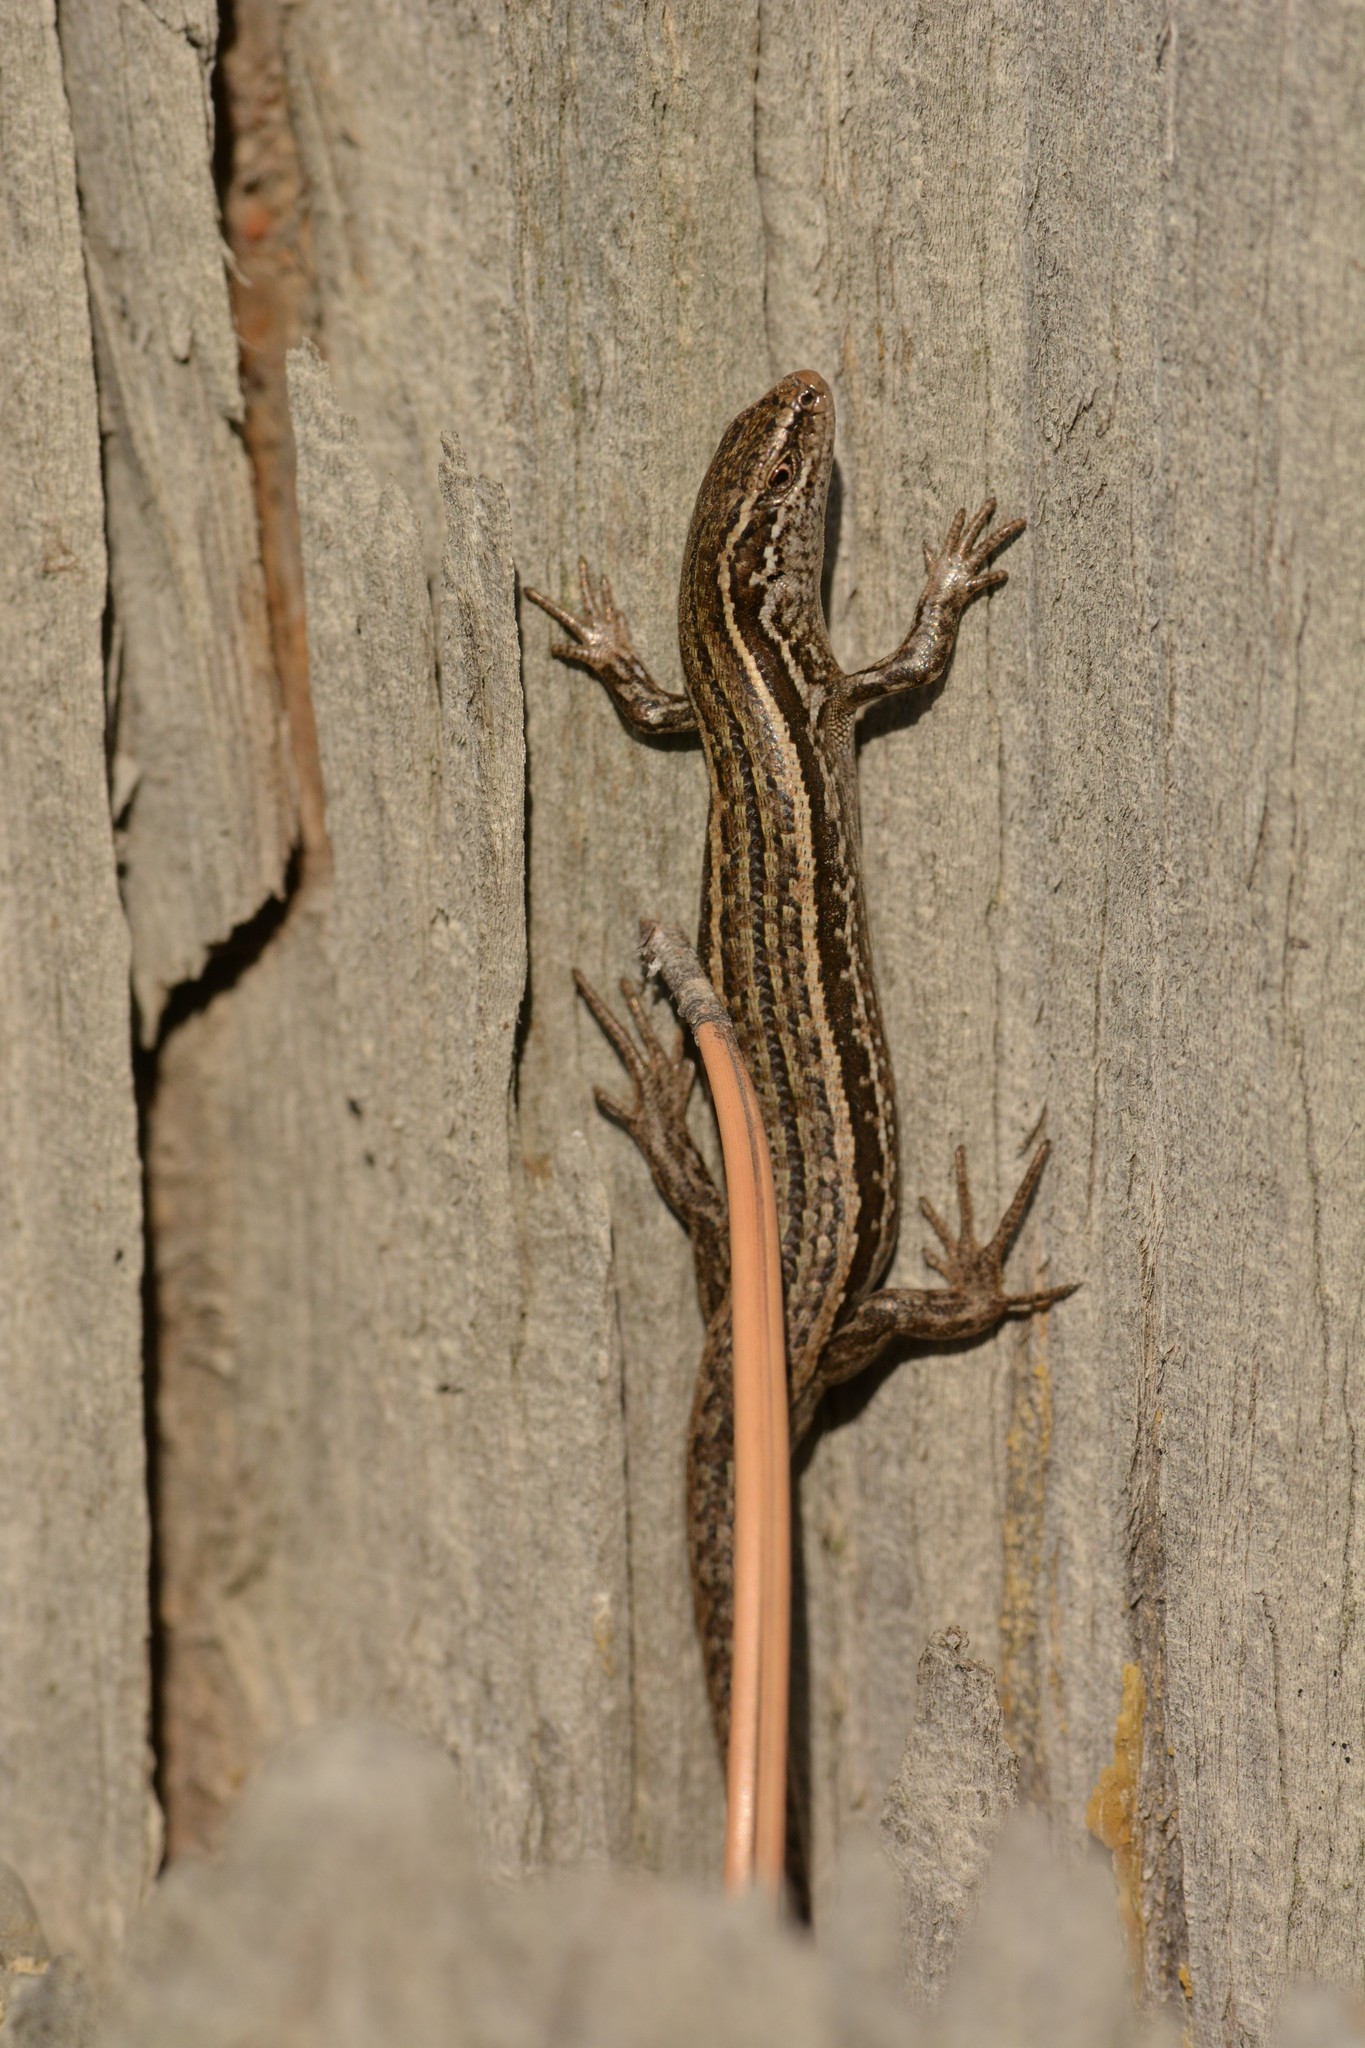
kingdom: Animalia
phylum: Chordata
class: Squamata
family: Scincidae
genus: Oligosoma
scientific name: Oligosoma maccanni
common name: Mccann’s skink
